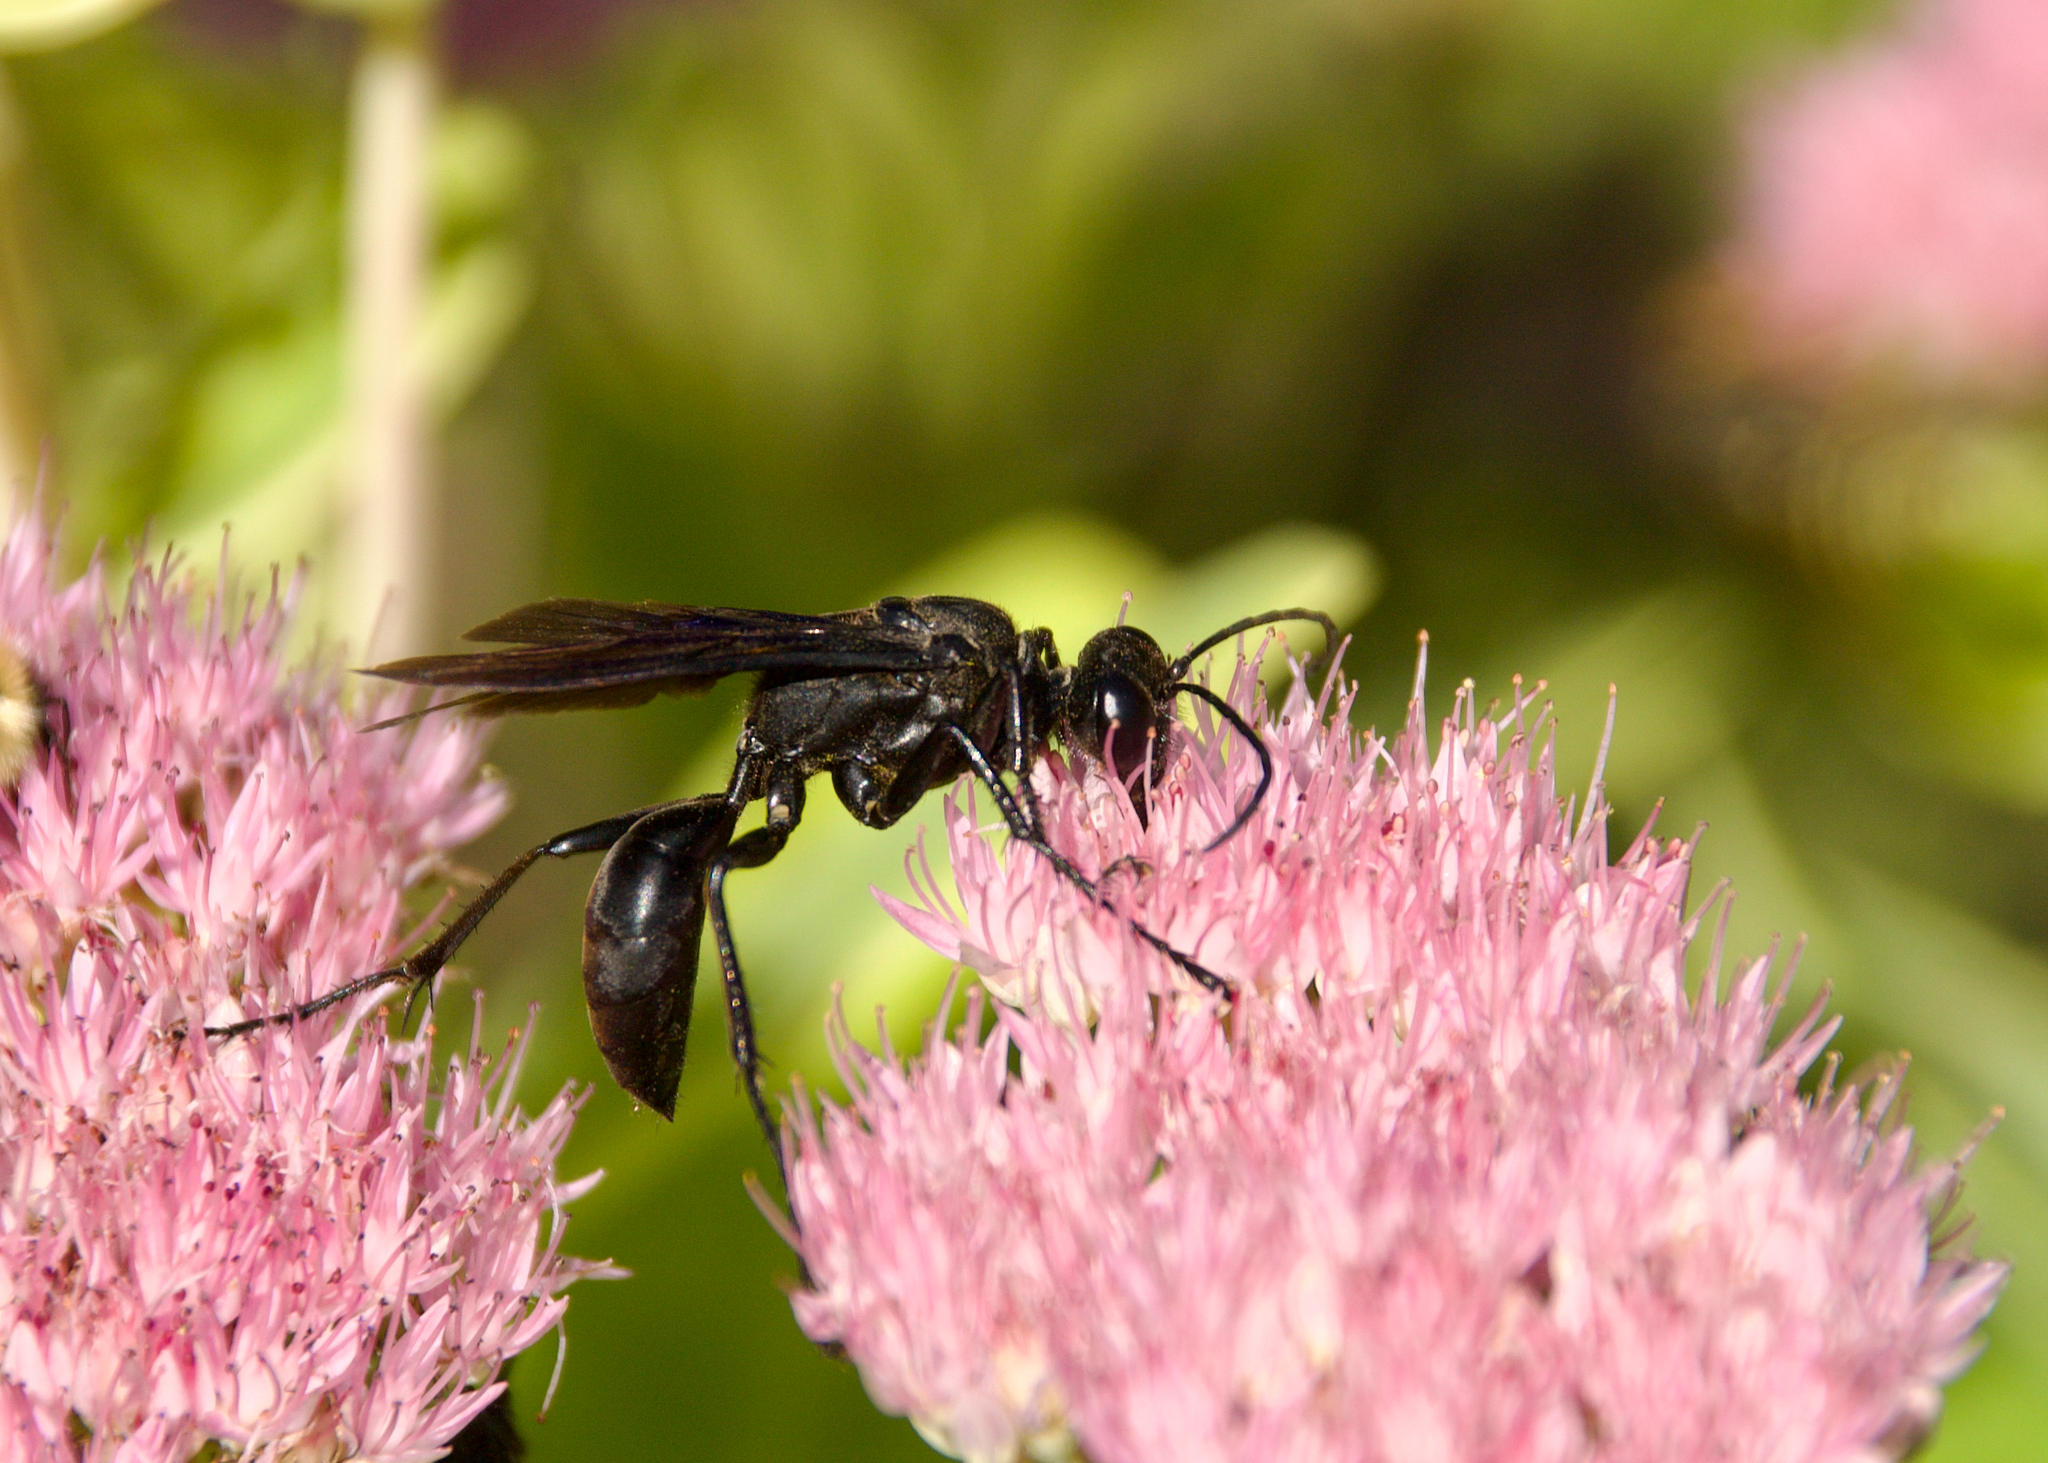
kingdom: Animalia
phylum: Arthropoda
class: Insecta
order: Hymenoptera
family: Sphecidae
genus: Sphex
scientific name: Sphex pensylvanicus
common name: Great black digger wasp
